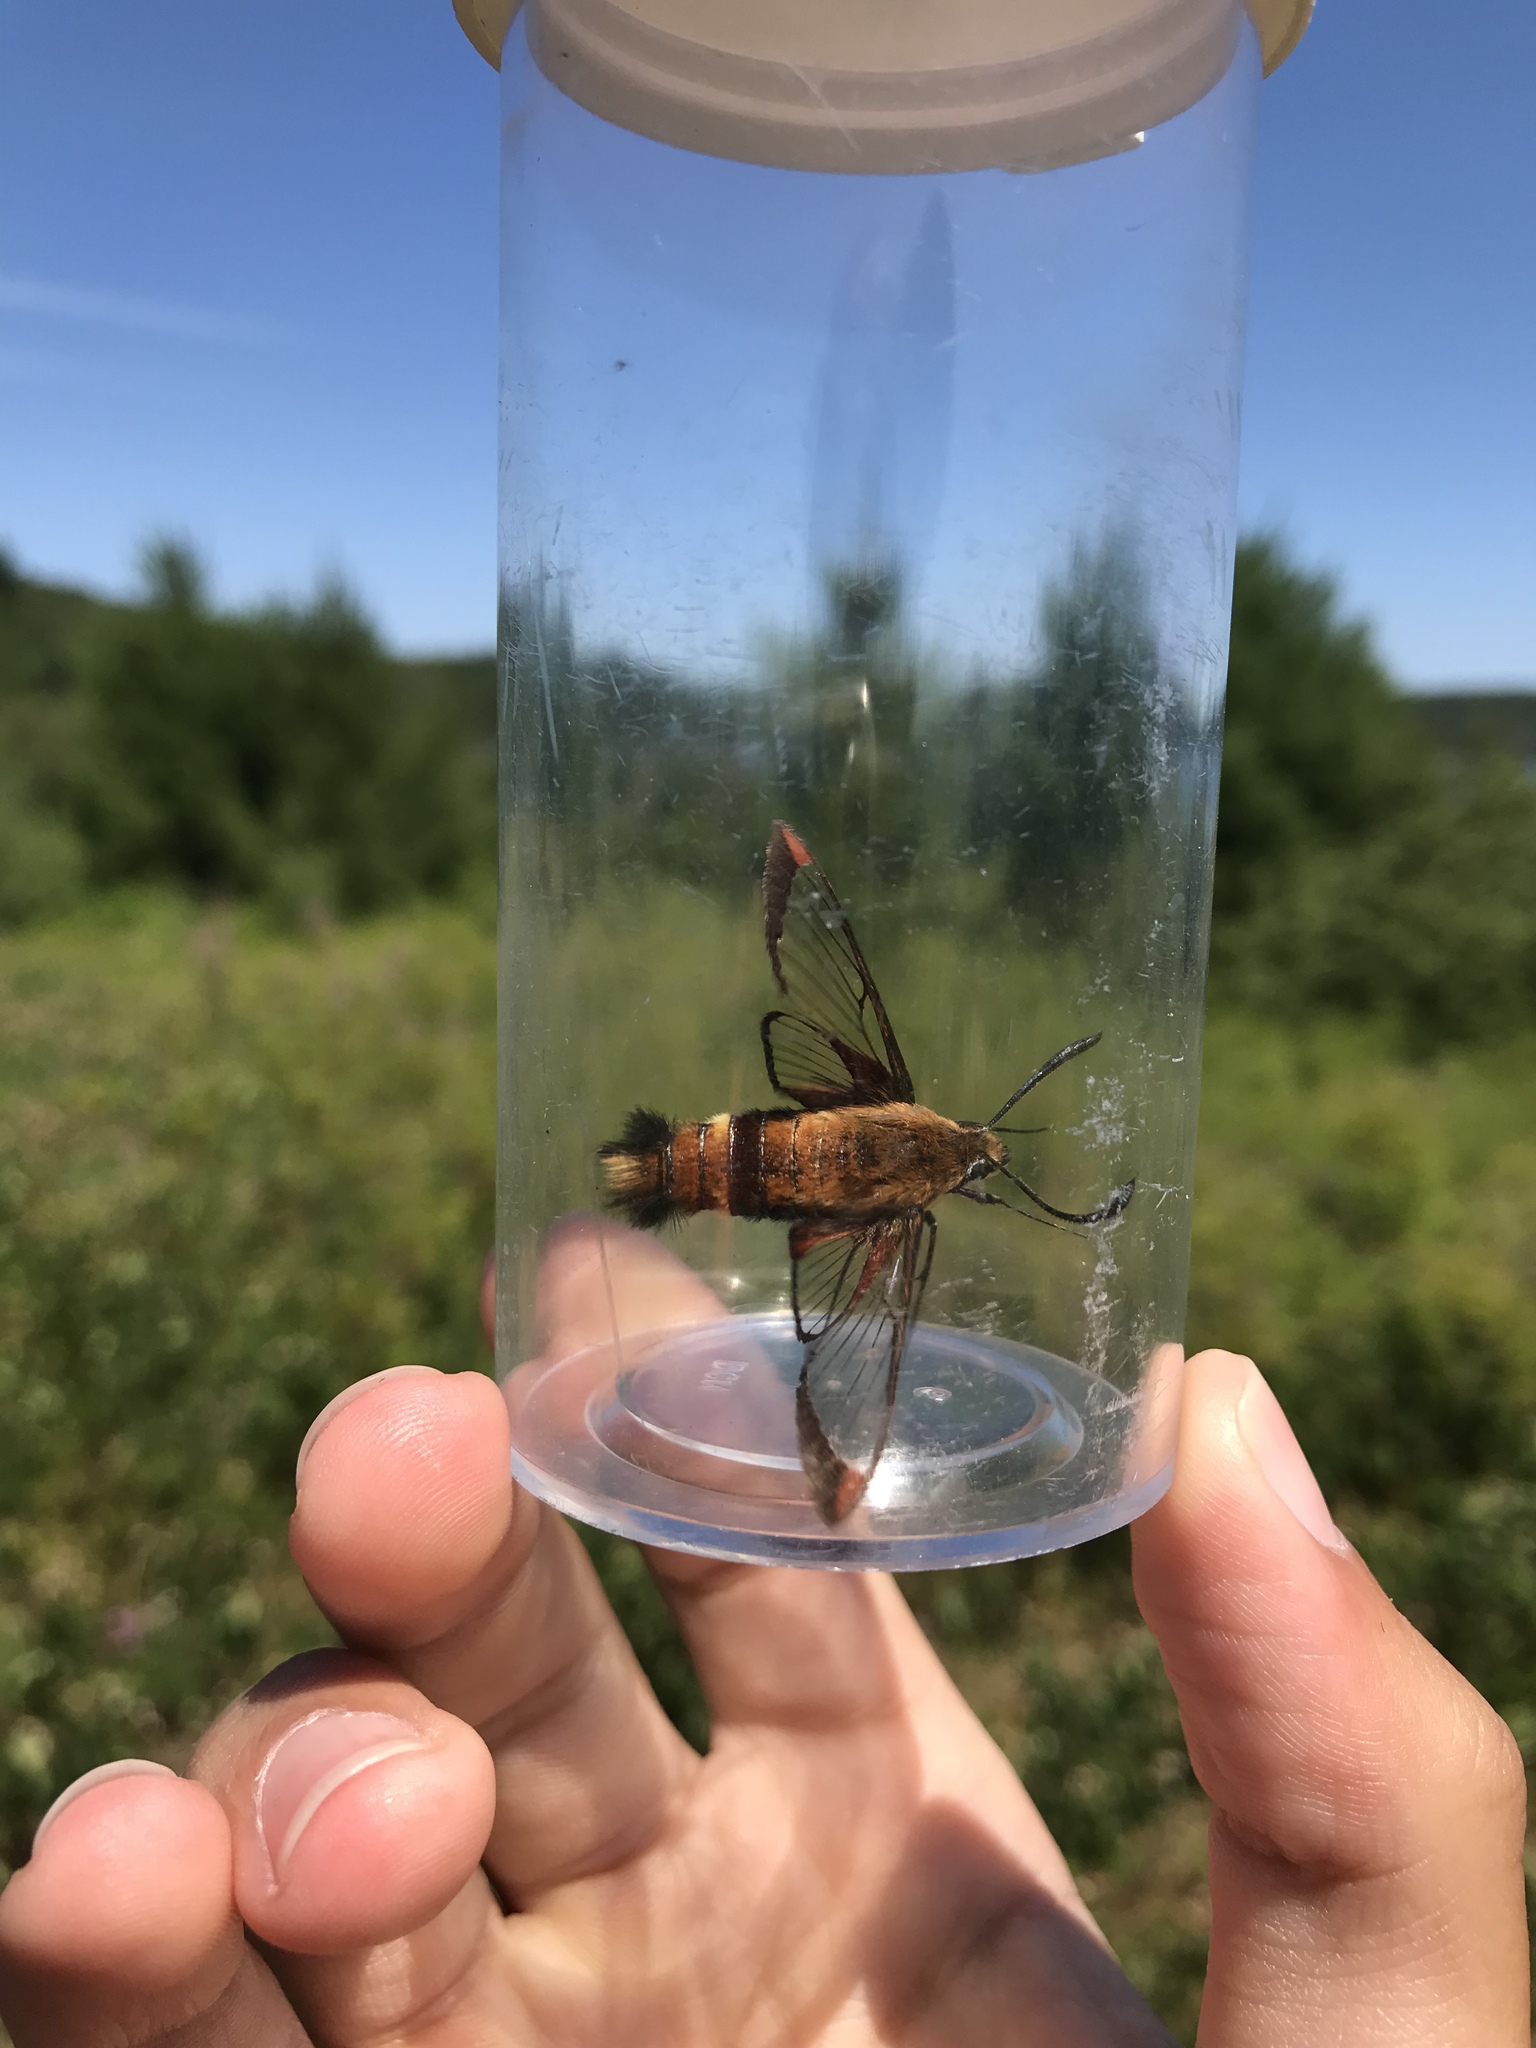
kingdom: Animalia
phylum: Arthropoda
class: Insecta
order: Lepidoptera
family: Sphingidae
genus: Hemaris
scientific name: Hemaris diffinis
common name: Bumblebee moth
